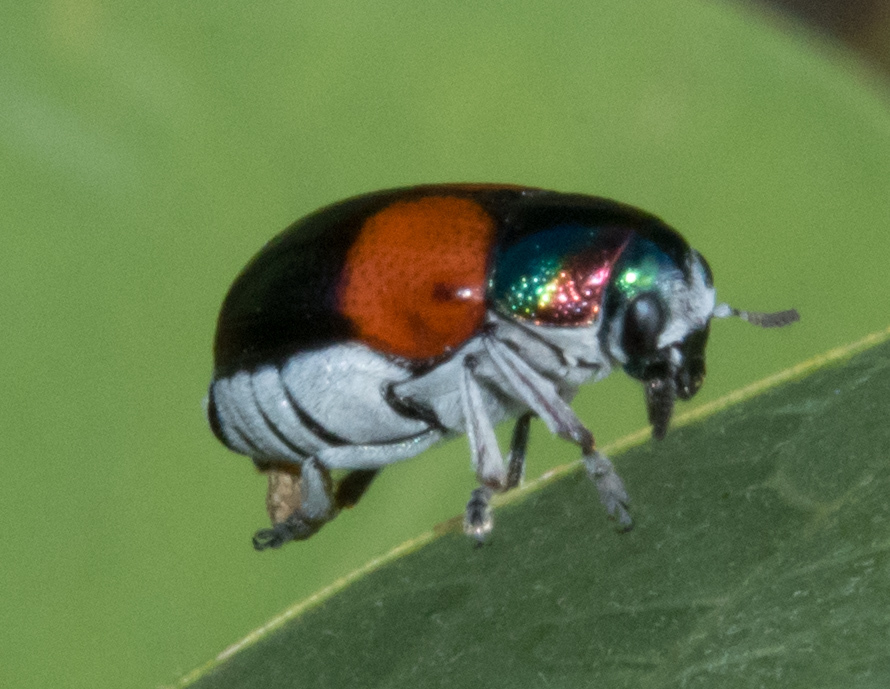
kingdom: Animalia
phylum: Arthropoda
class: Insecta
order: Coleoptera
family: Chrysomelidae
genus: Megalostomis
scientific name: Megalostomis pyropyga
